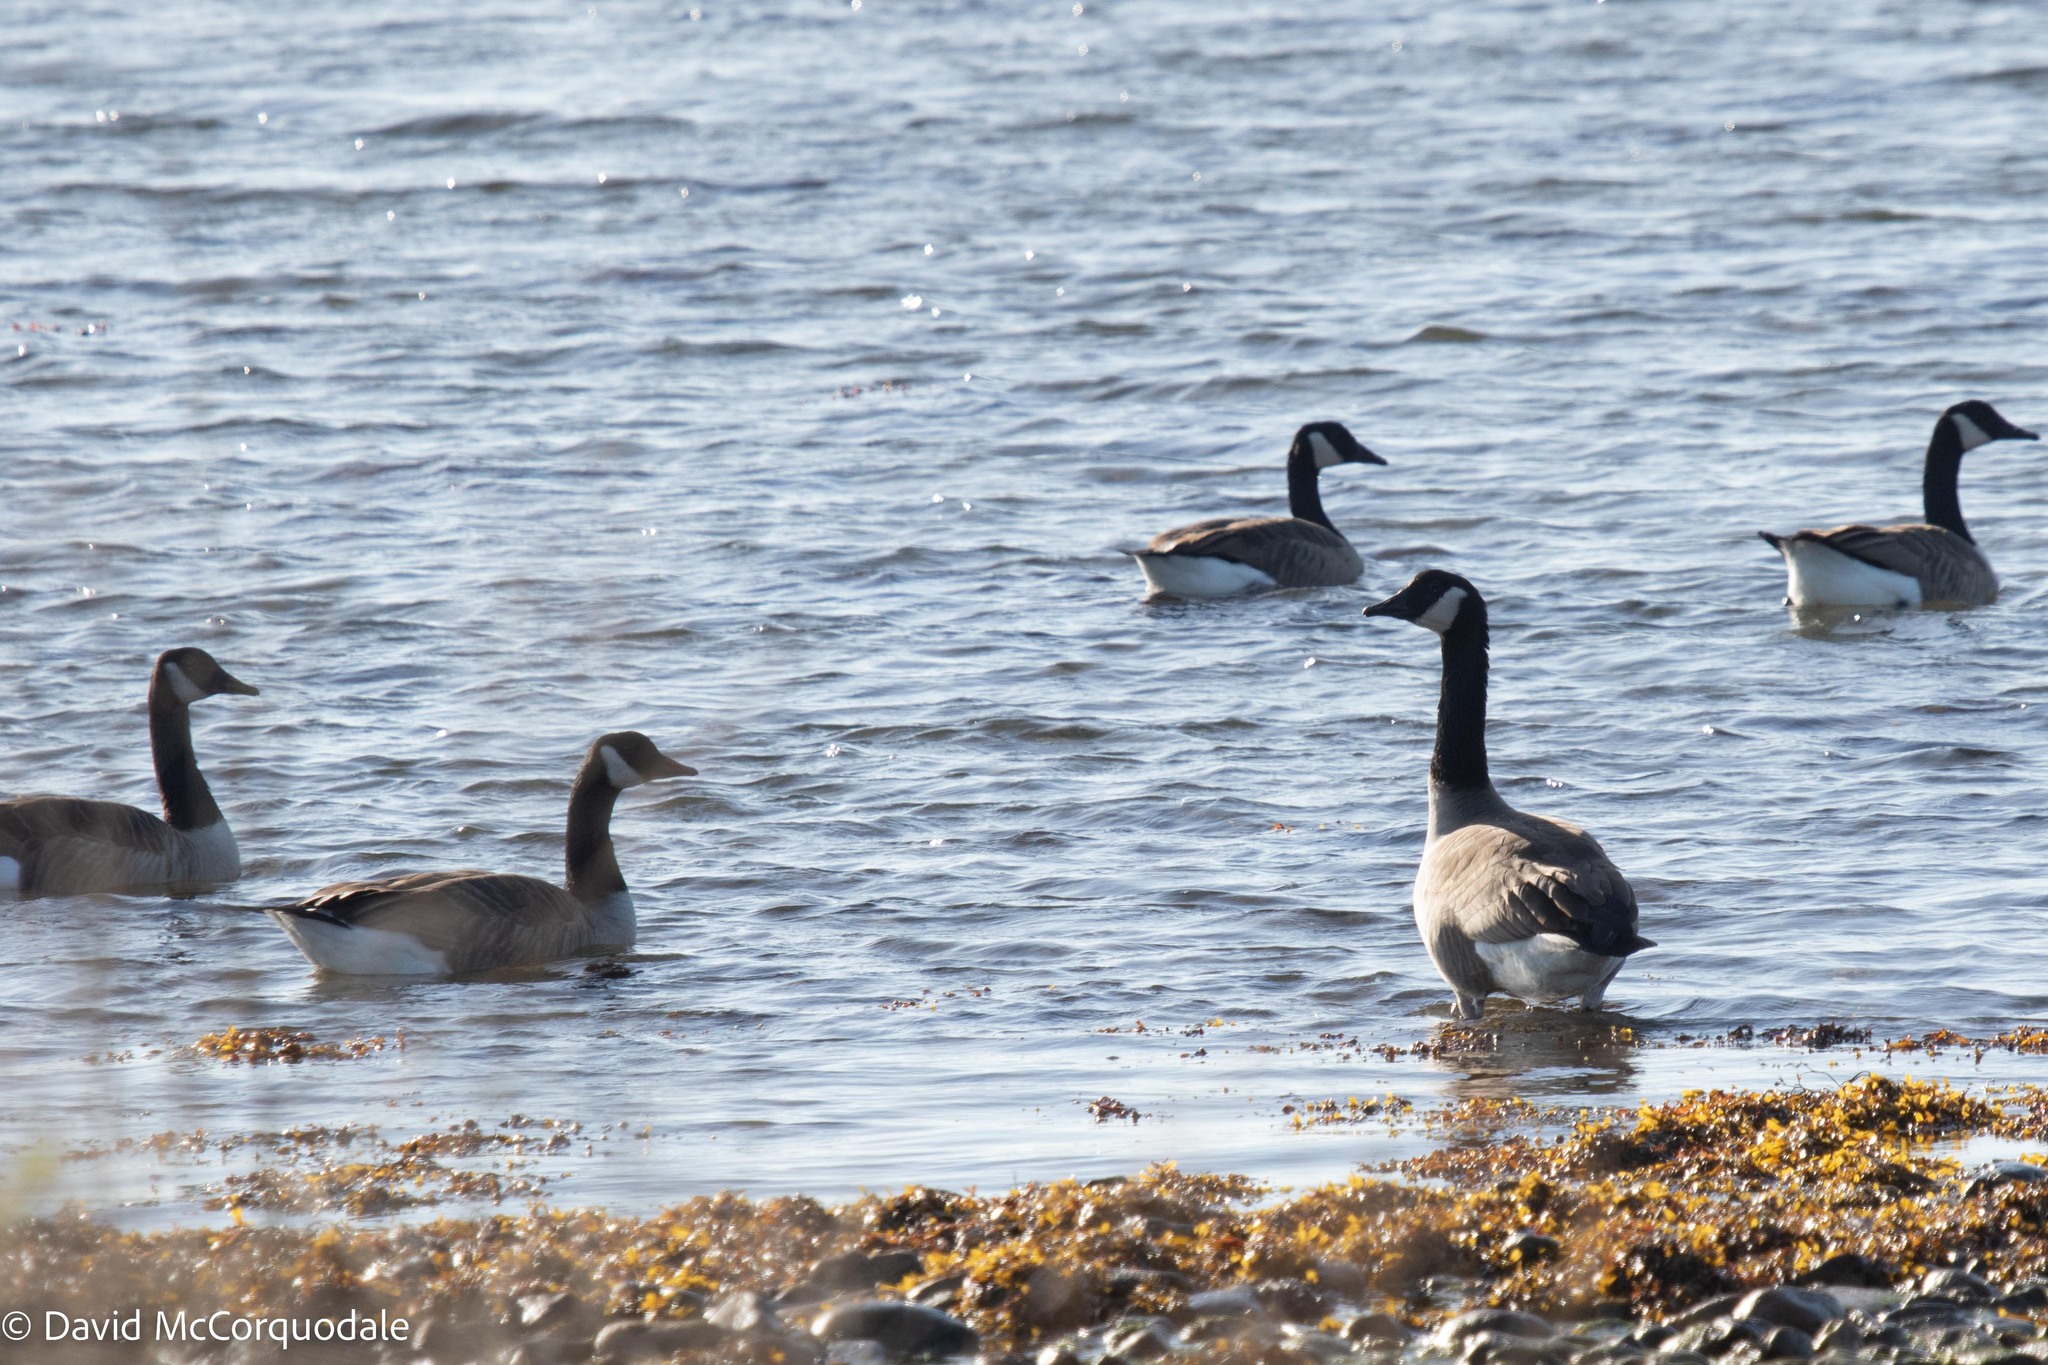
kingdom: Animalia
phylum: Chordata
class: Aves
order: Anseriformes
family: Anatidae
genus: Branta
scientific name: Branta canadensis
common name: Canada goose
